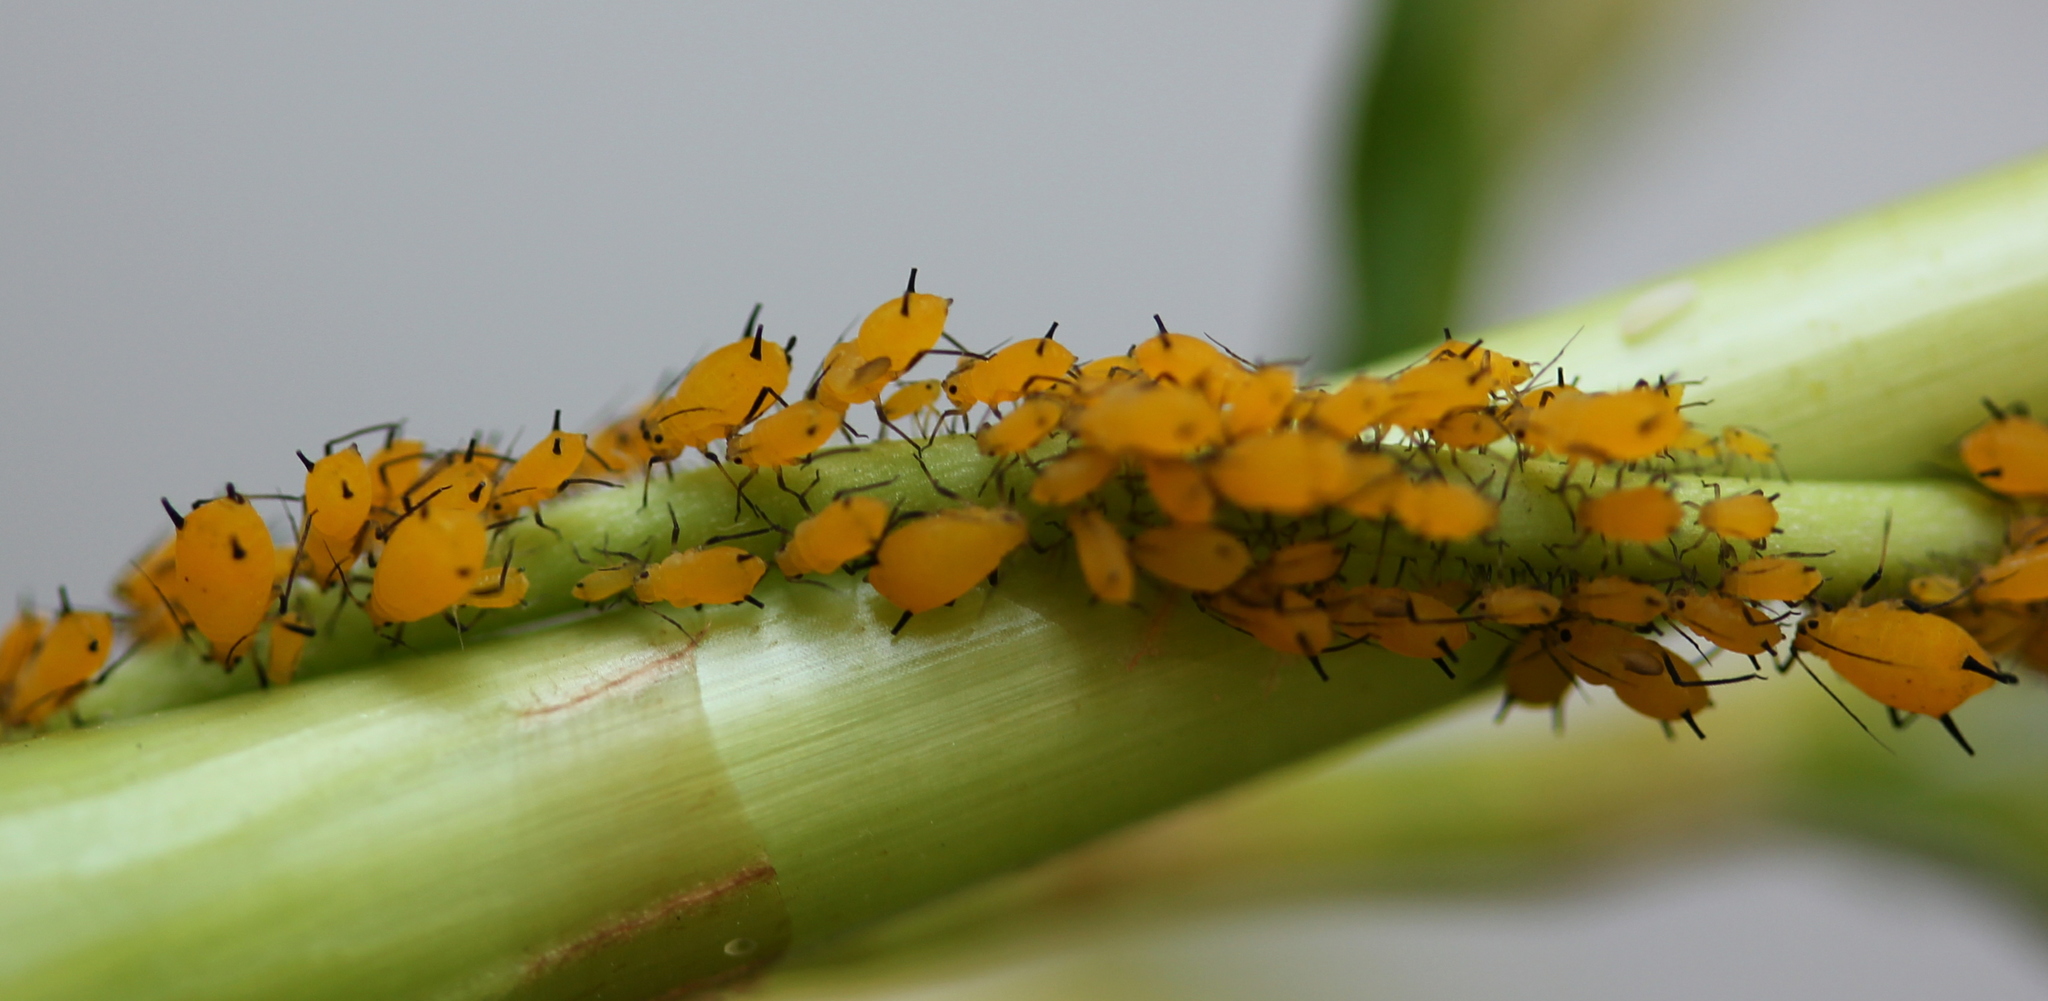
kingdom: Animalia
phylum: Arthropoda
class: Insecta
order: Hemiptera
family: Aphididae
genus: Aphis
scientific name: Aphis nerii
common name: Oleander aphid
